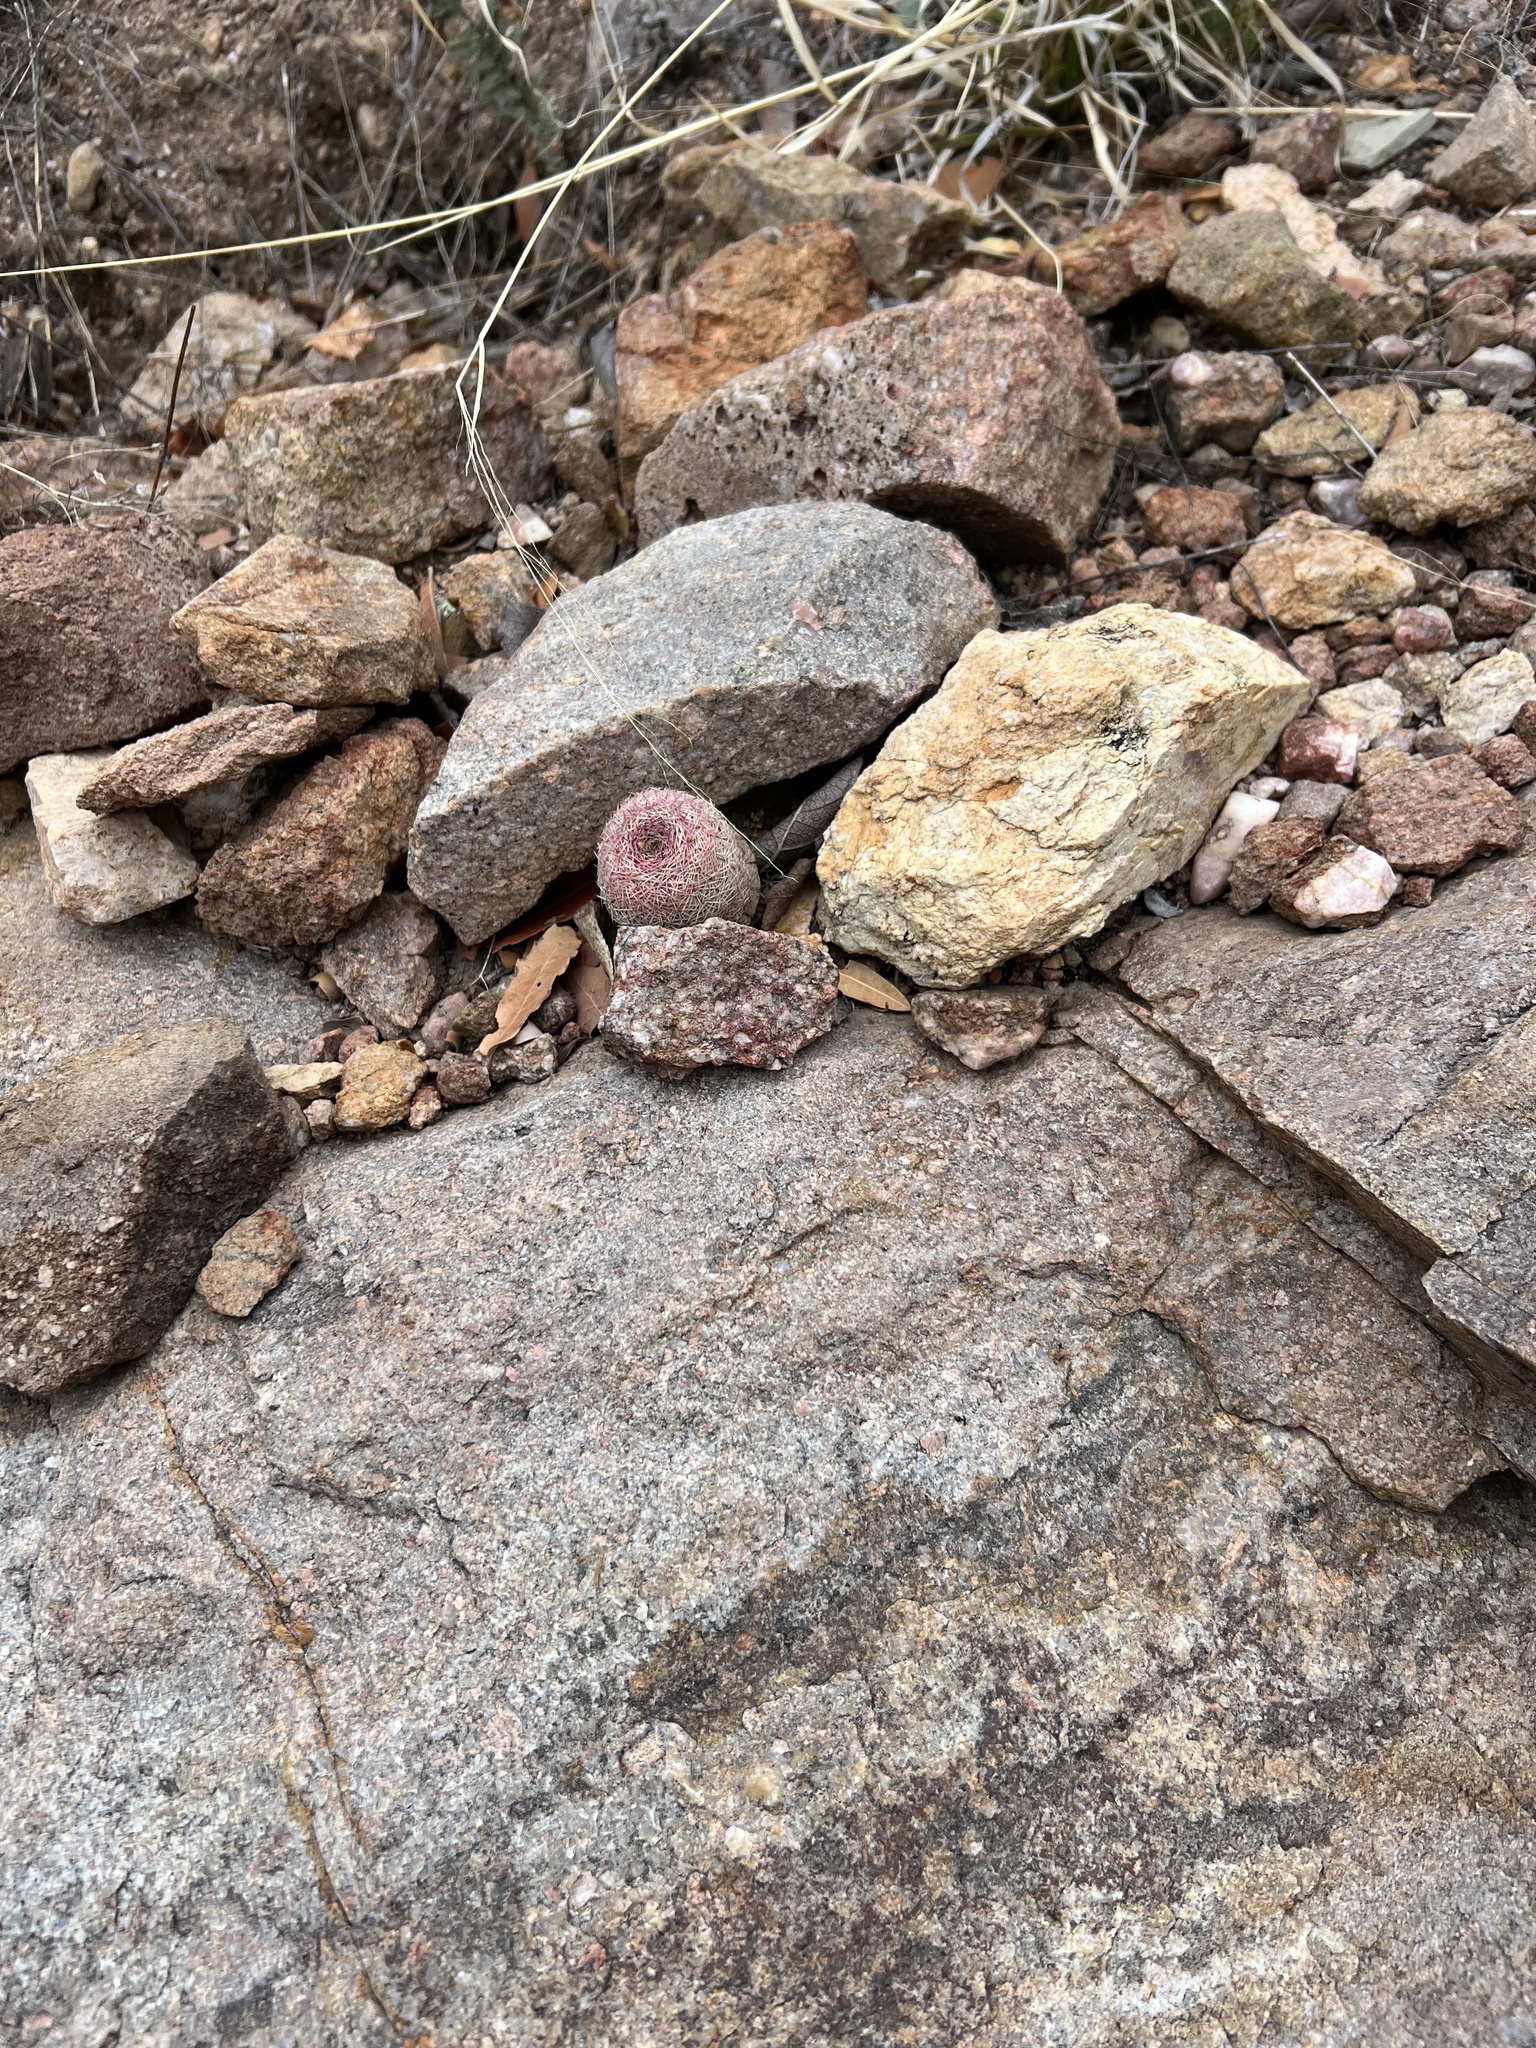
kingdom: Plantae
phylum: Tracheophyta
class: Magnoliopsida
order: Caryophyllales
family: Cactaceae
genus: Echinocereus
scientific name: Echinocereus rigidissimus
